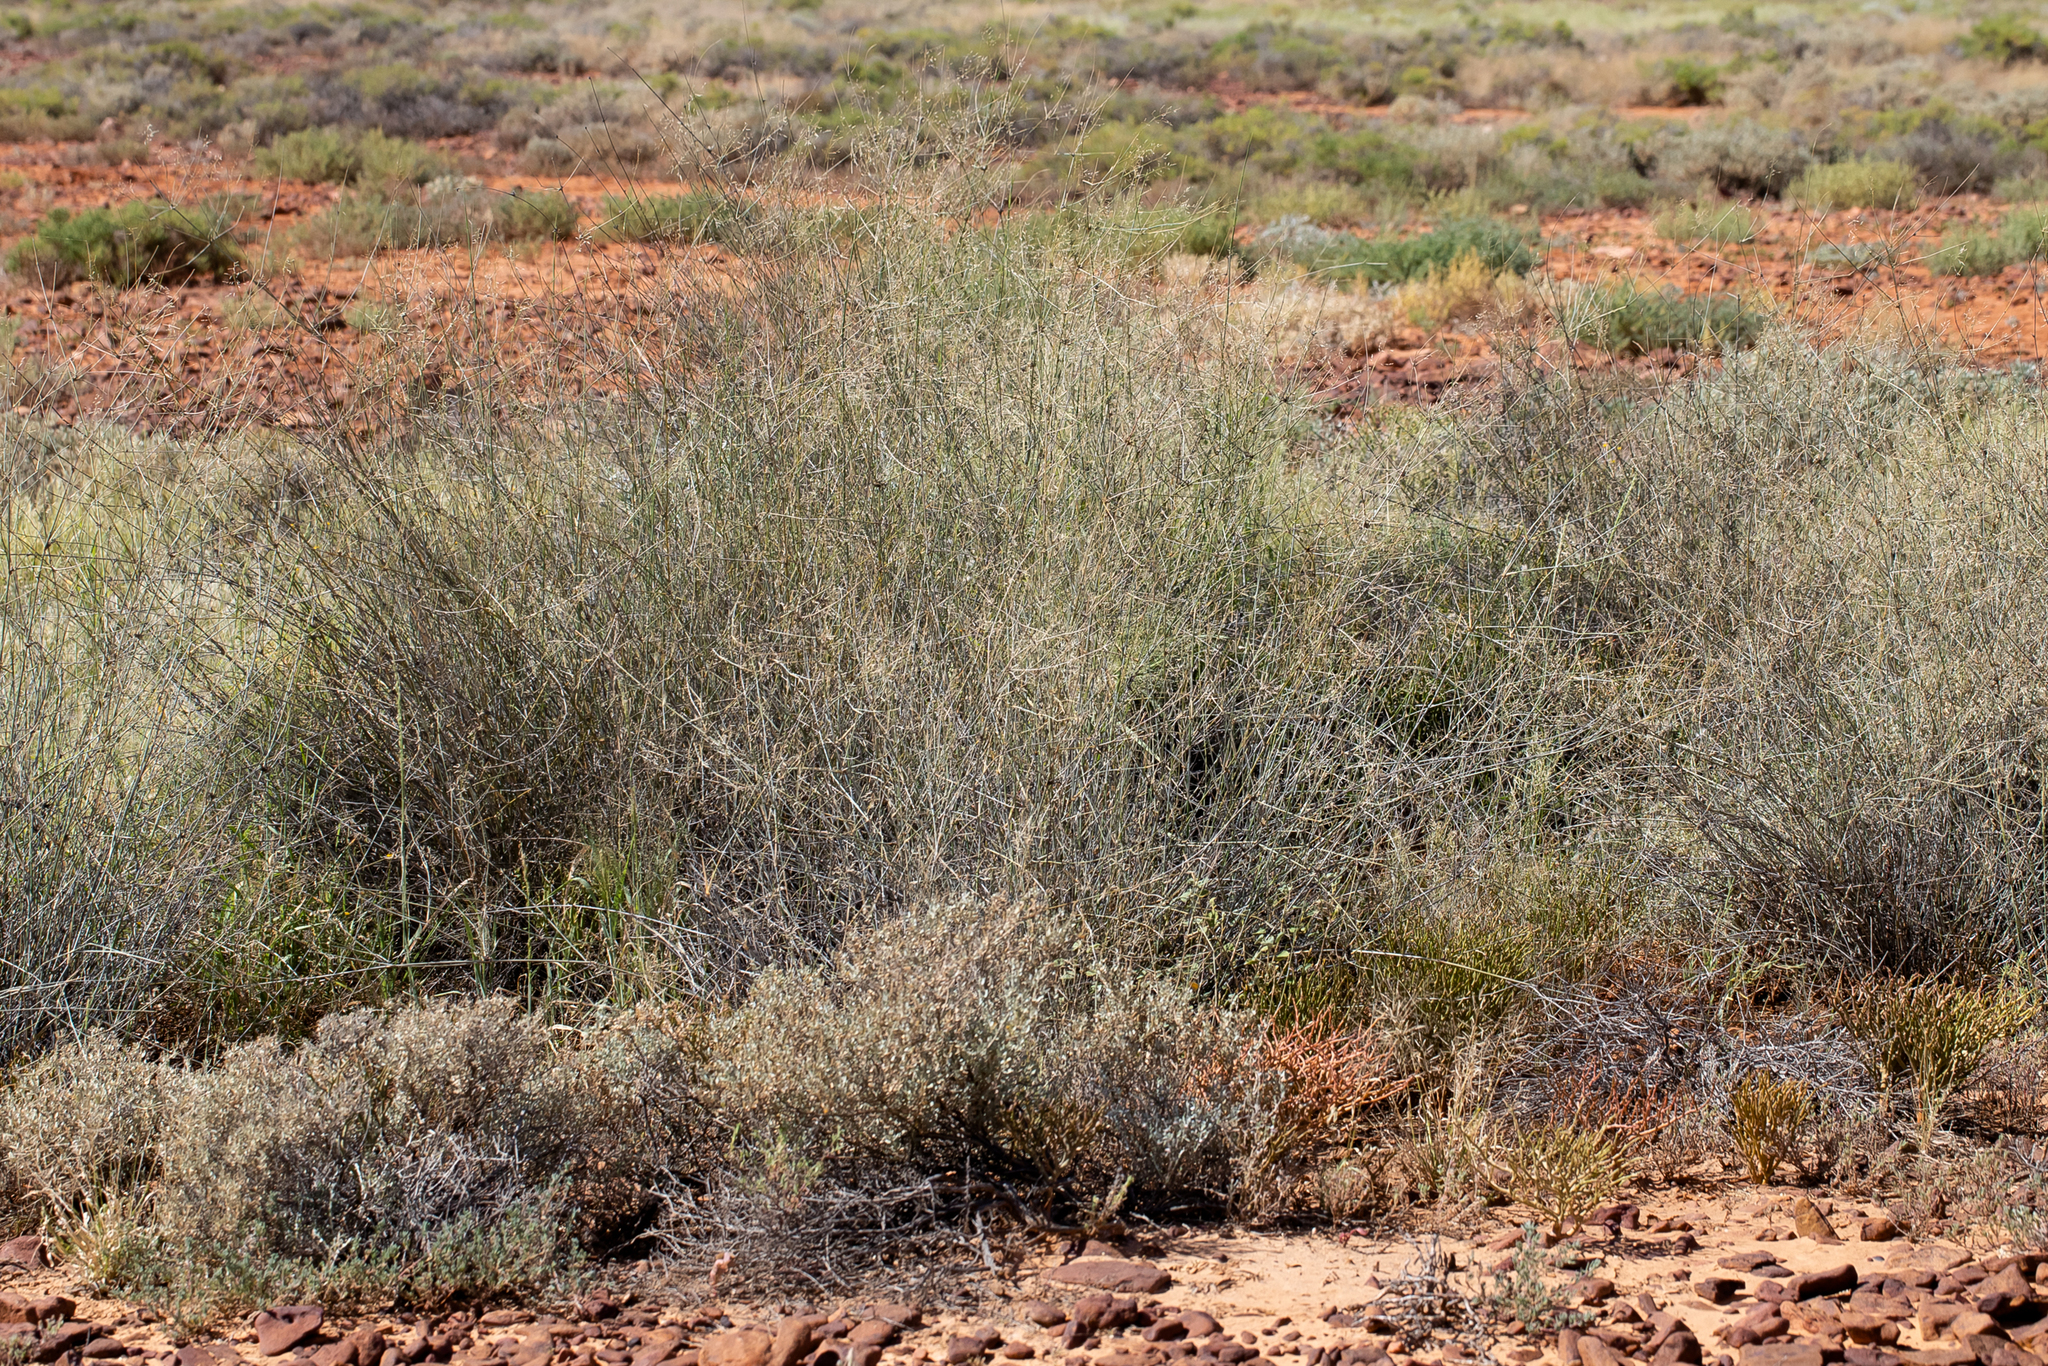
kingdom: Plantae
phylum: Tracheophyta
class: Liliopsida
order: Poales
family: Poaceae
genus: Sporobolus
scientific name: Sporobolus ramigerus
